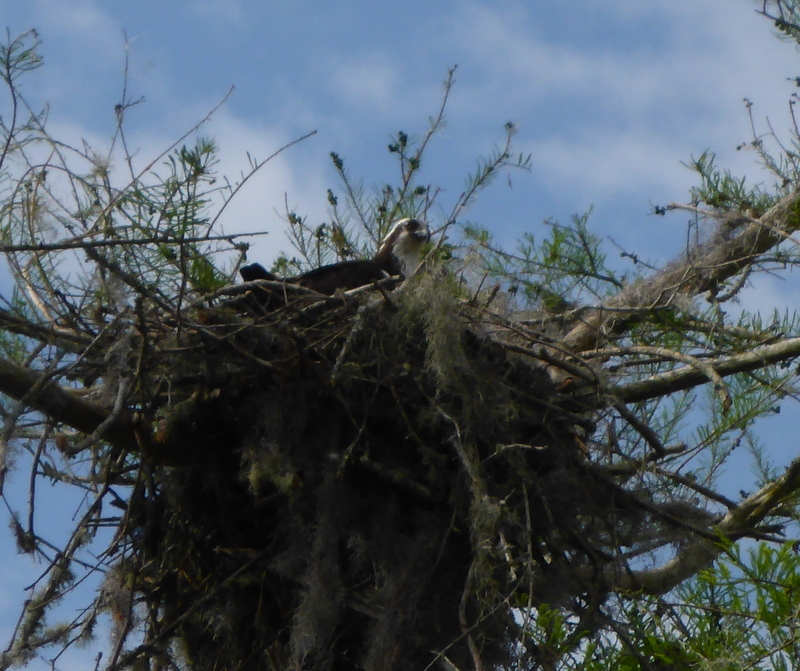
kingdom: Animalia
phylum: Chordata
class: Aves
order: Accipitriformes
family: Pandionidae
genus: Pandion
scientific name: Pandion haliaetus
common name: Osprey
